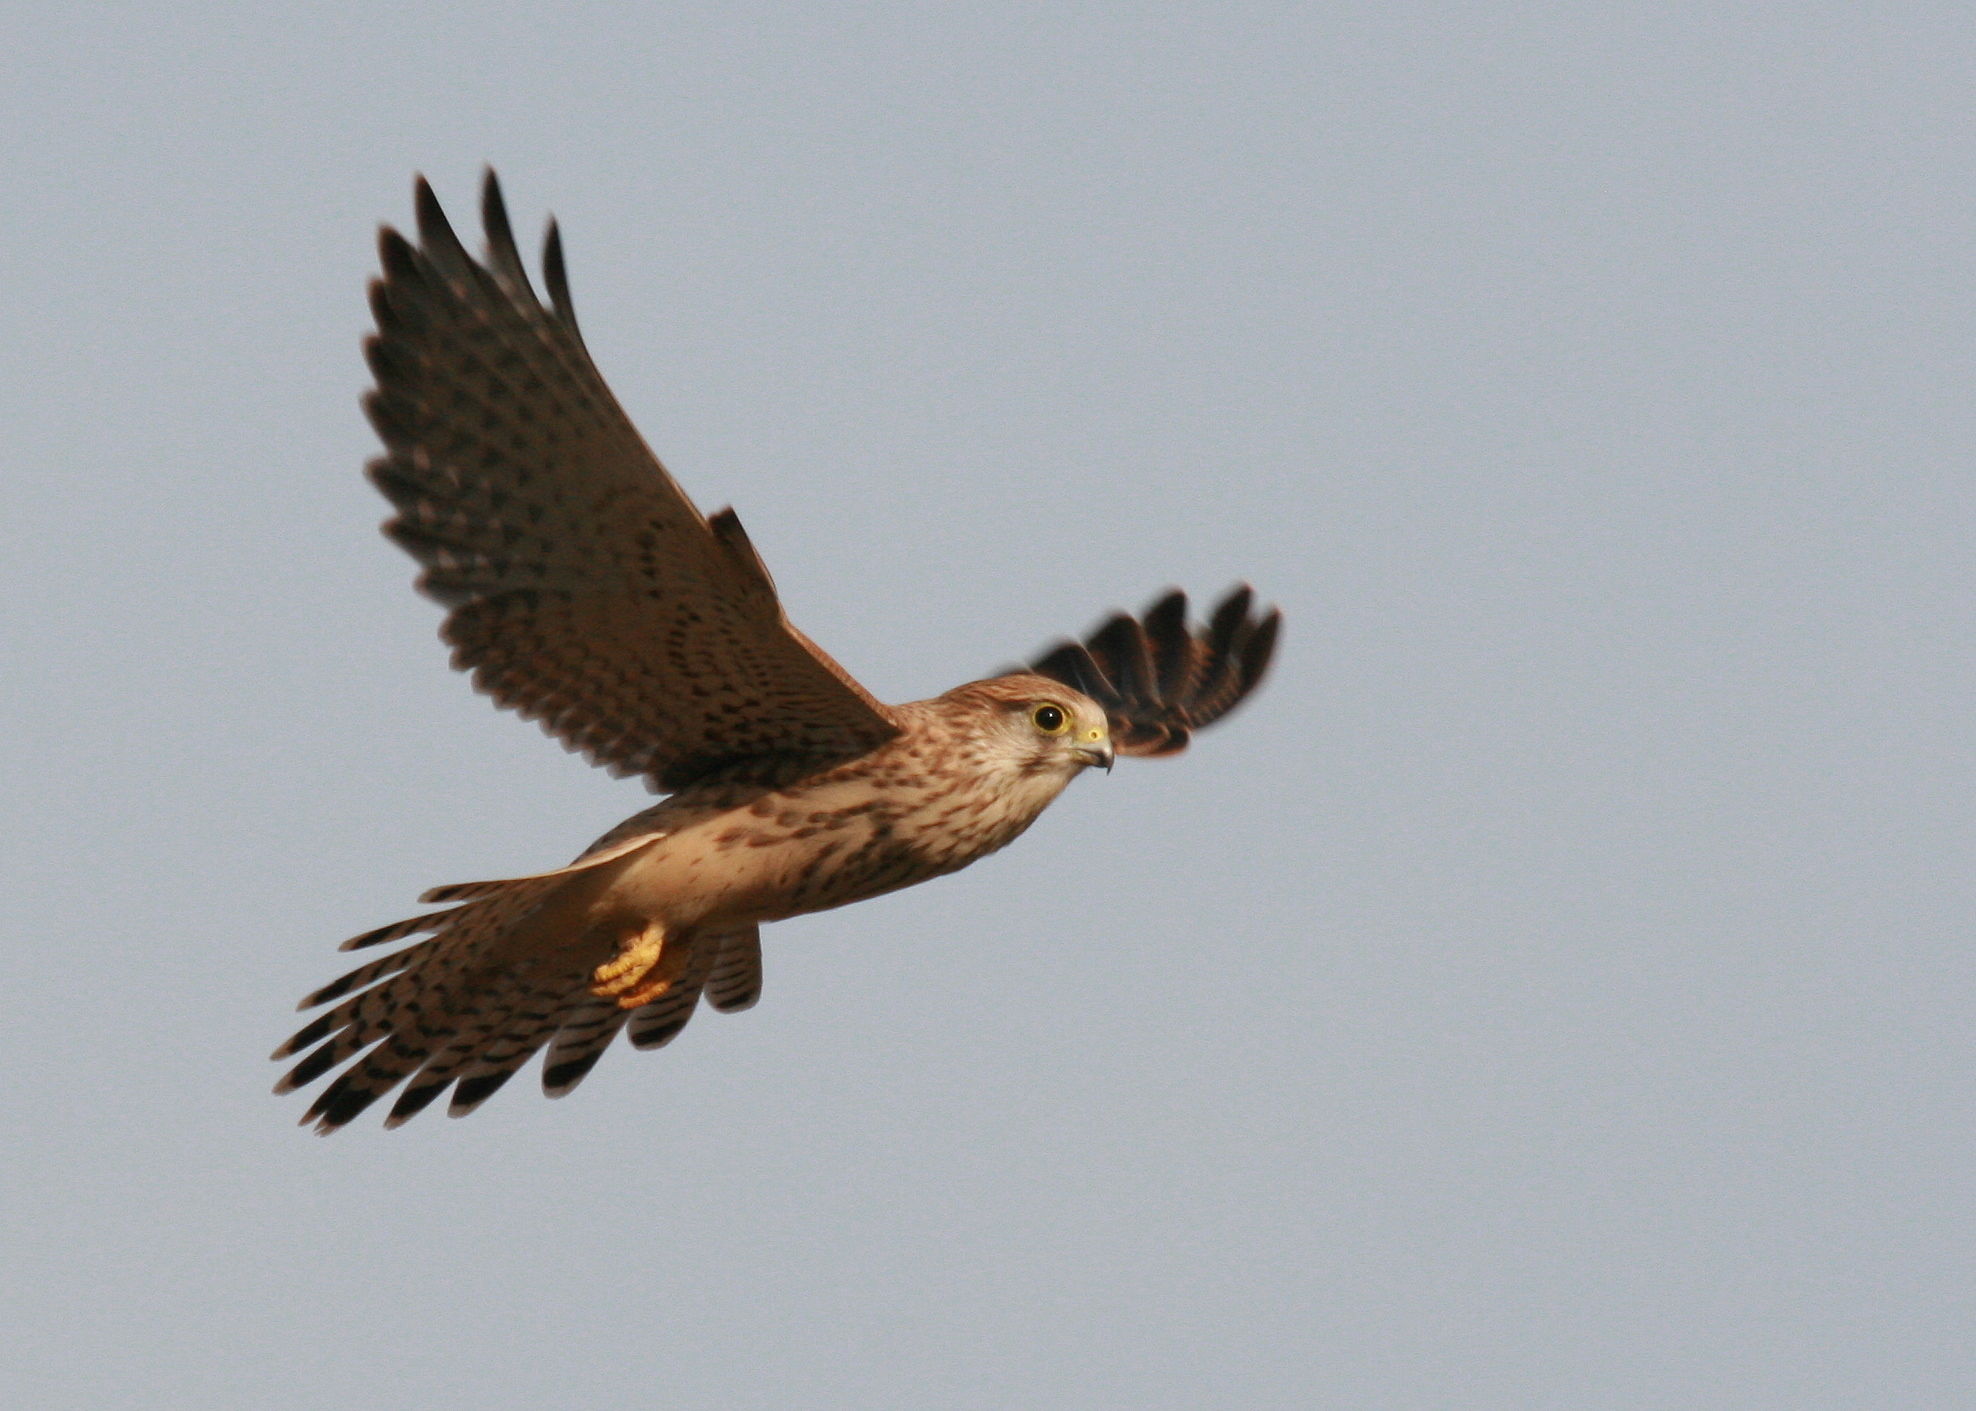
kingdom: Animalia
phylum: Chordata
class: Aves
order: Falconiformes
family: Falconidae
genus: Falco
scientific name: Falco tinnunculus
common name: Common kestrel
